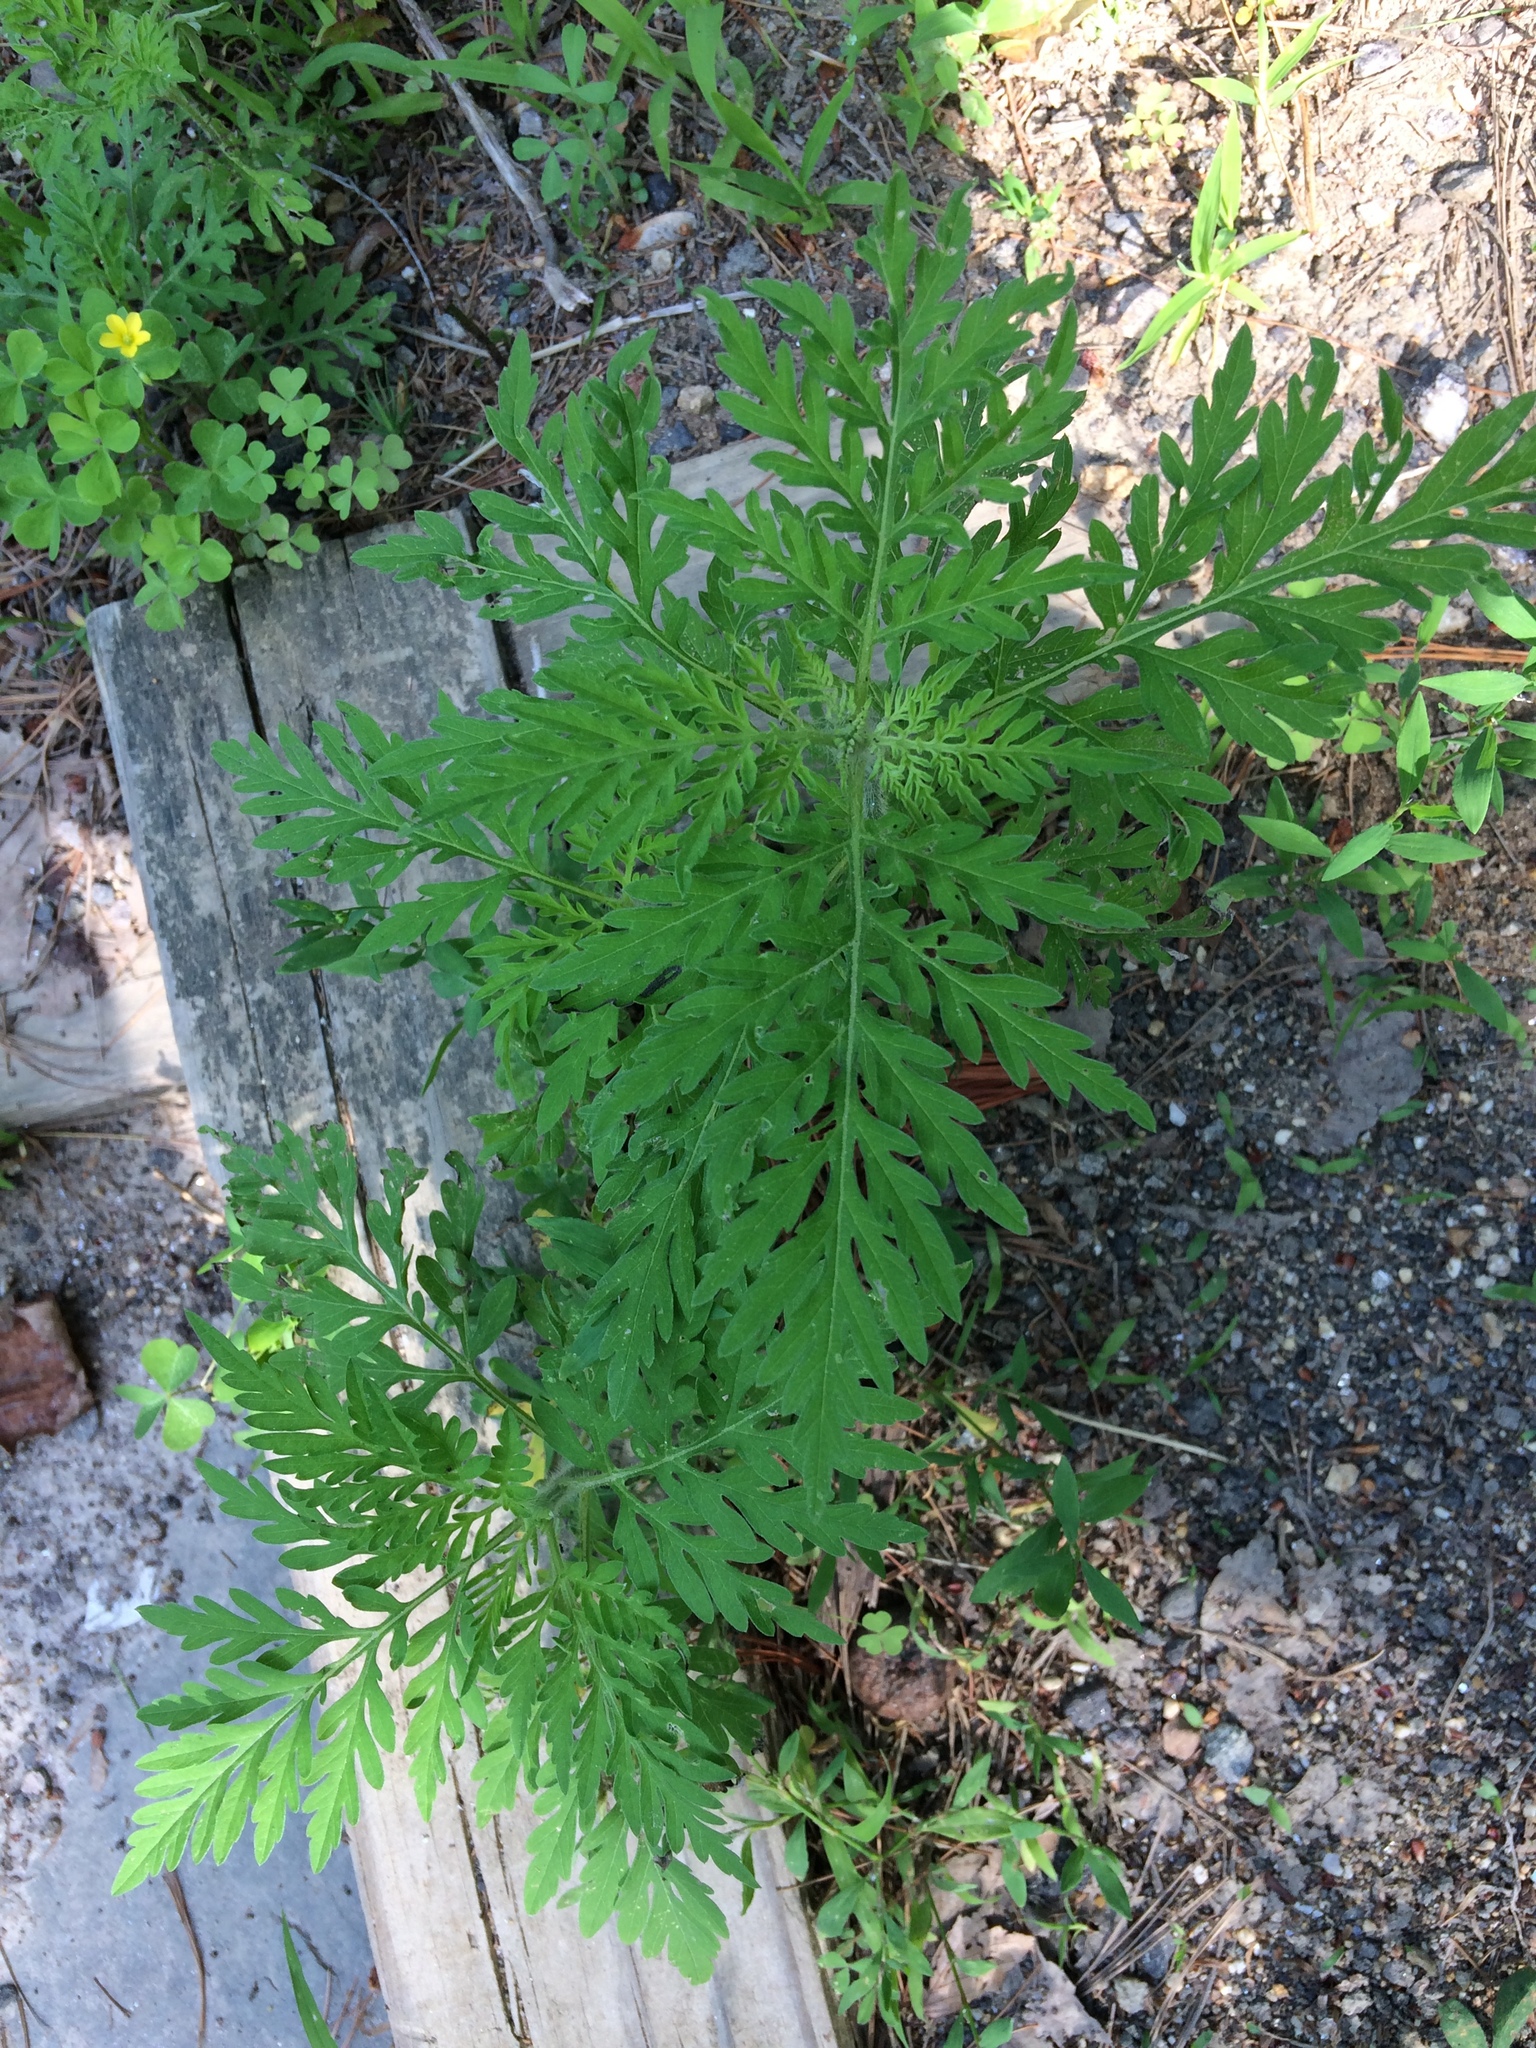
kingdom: Plantae
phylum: Tracheophyta
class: Magnoliopsida
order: Asterales
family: Asteraceae
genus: Ambrosia
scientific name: Ambrosia artemisiifolia
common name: Annual ragweed
